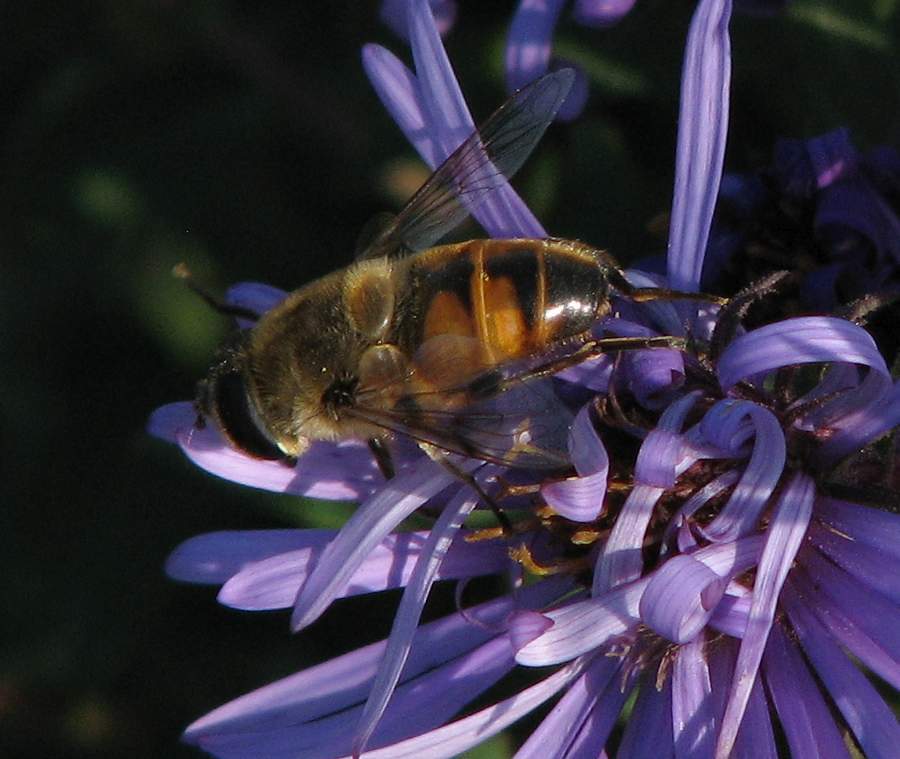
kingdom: Animalia
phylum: Arthropoda
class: Insecta
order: Diptera
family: Syrphidae
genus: Eristalis
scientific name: Eristalis tenax
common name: Drone fly
